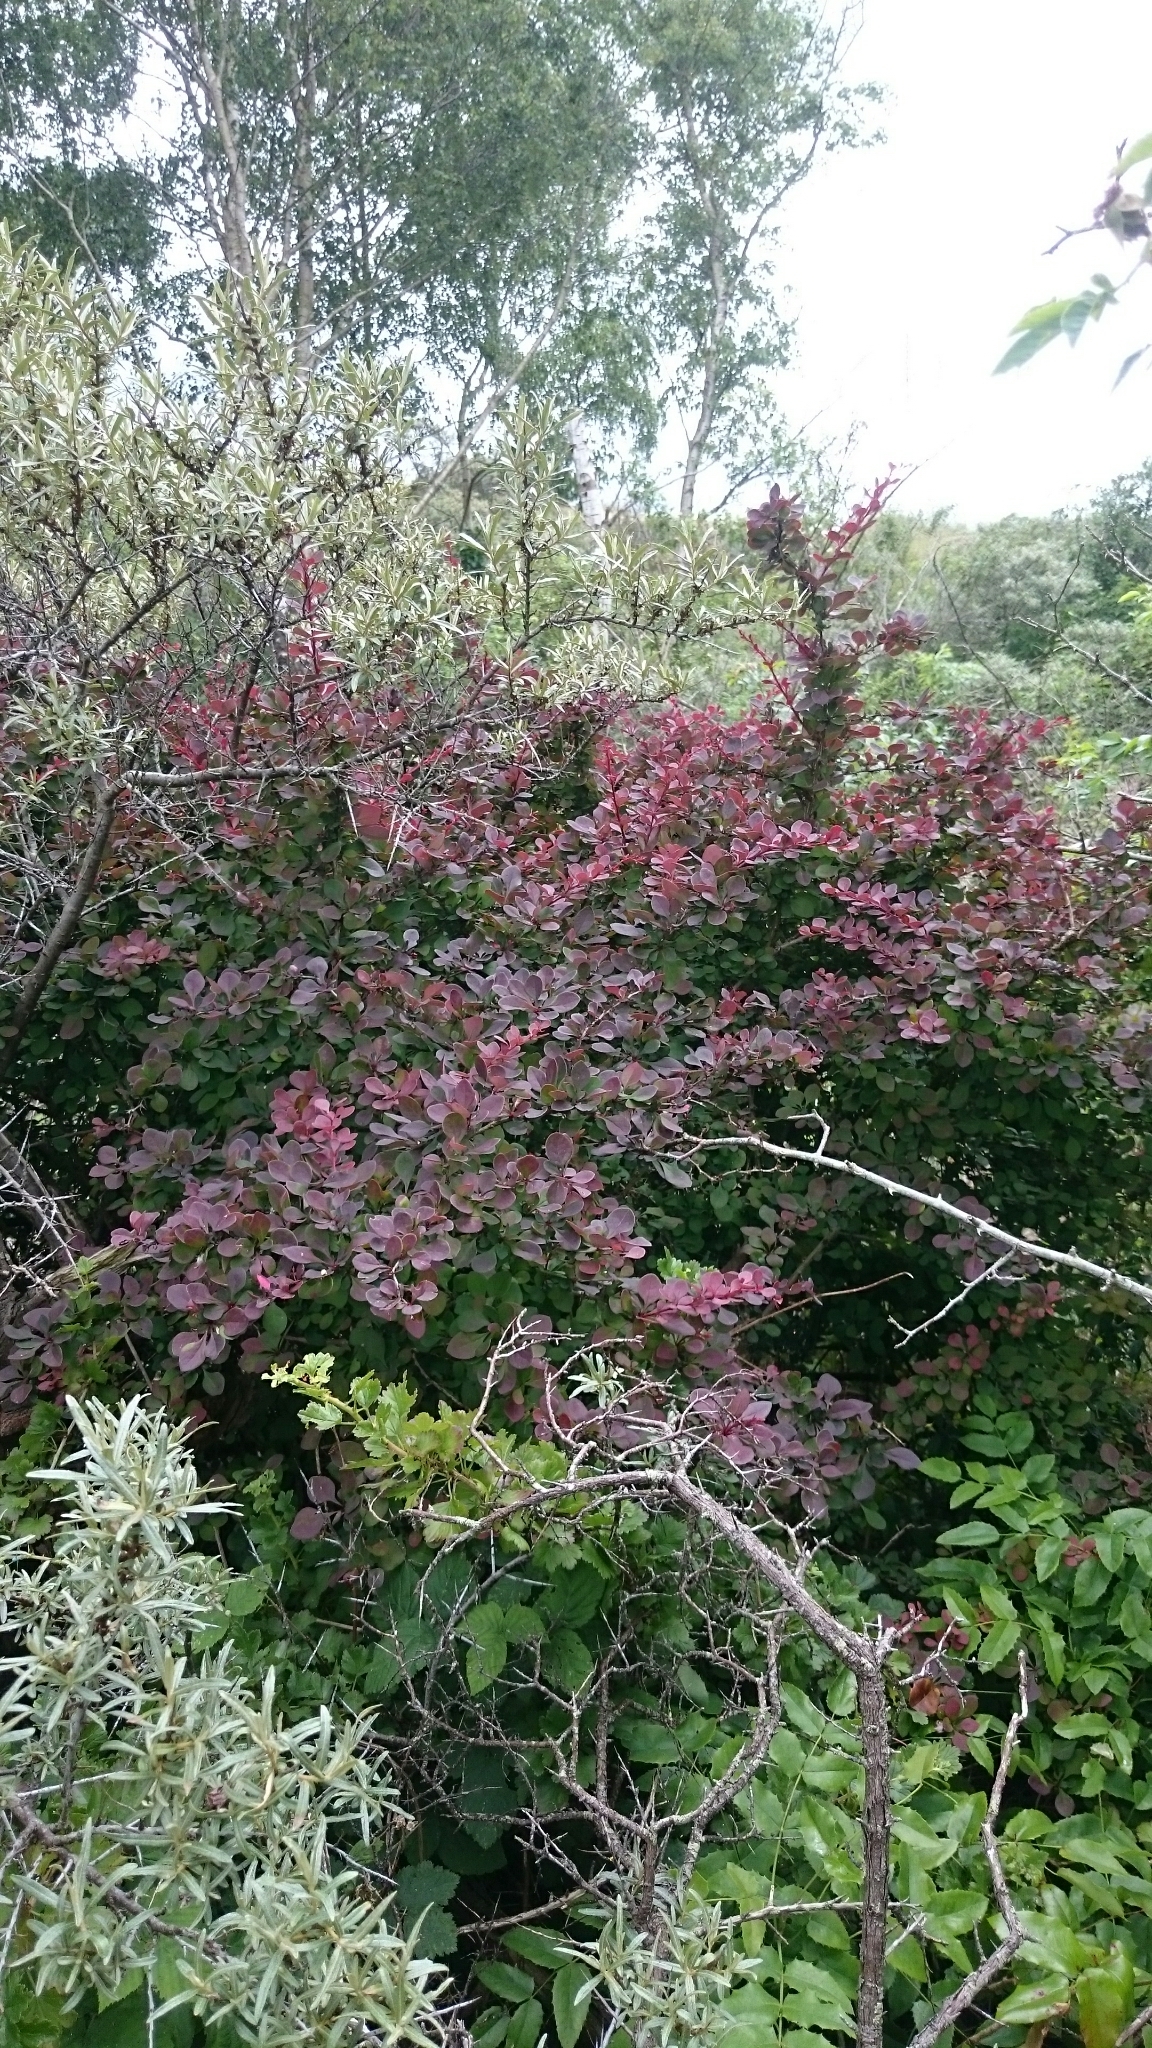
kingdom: Plantae
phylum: Tracheophyta
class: Magnoliopsida
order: Ranunculales
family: Berberidaceae
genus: Berberis
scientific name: Berberis thunbergii
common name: Japanese barberry
